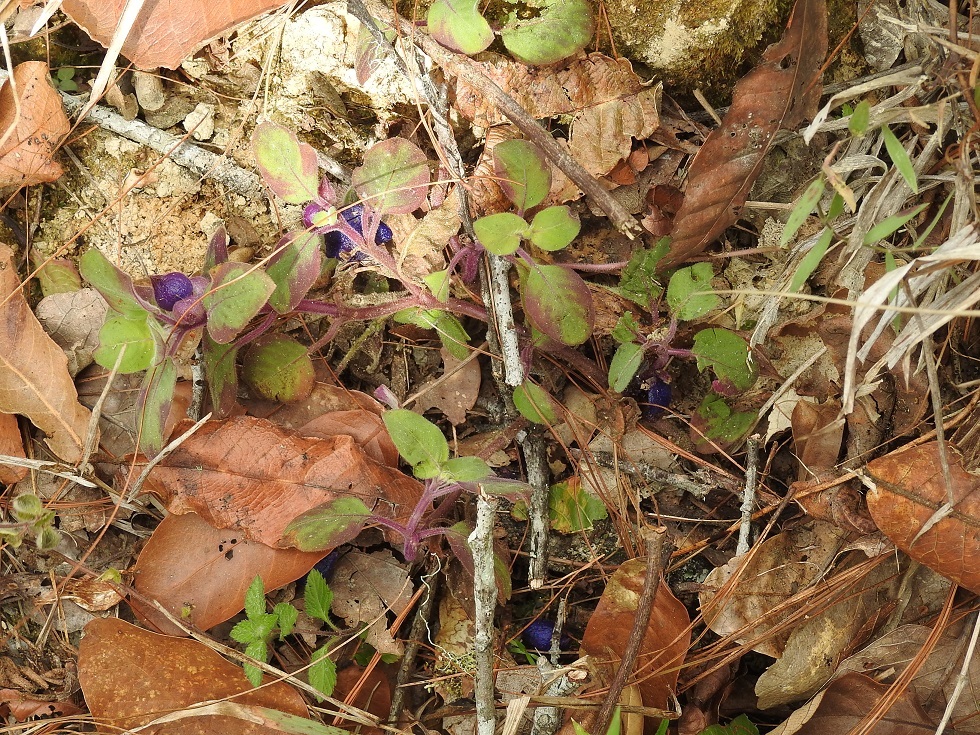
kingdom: Plantae
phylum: Tracheophyta
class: Magnoliopsida
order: Gentianales
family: Rubiaceae
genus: Coccocypselum
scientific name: Coccocypselum hirsutum
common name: Yerba de guava
